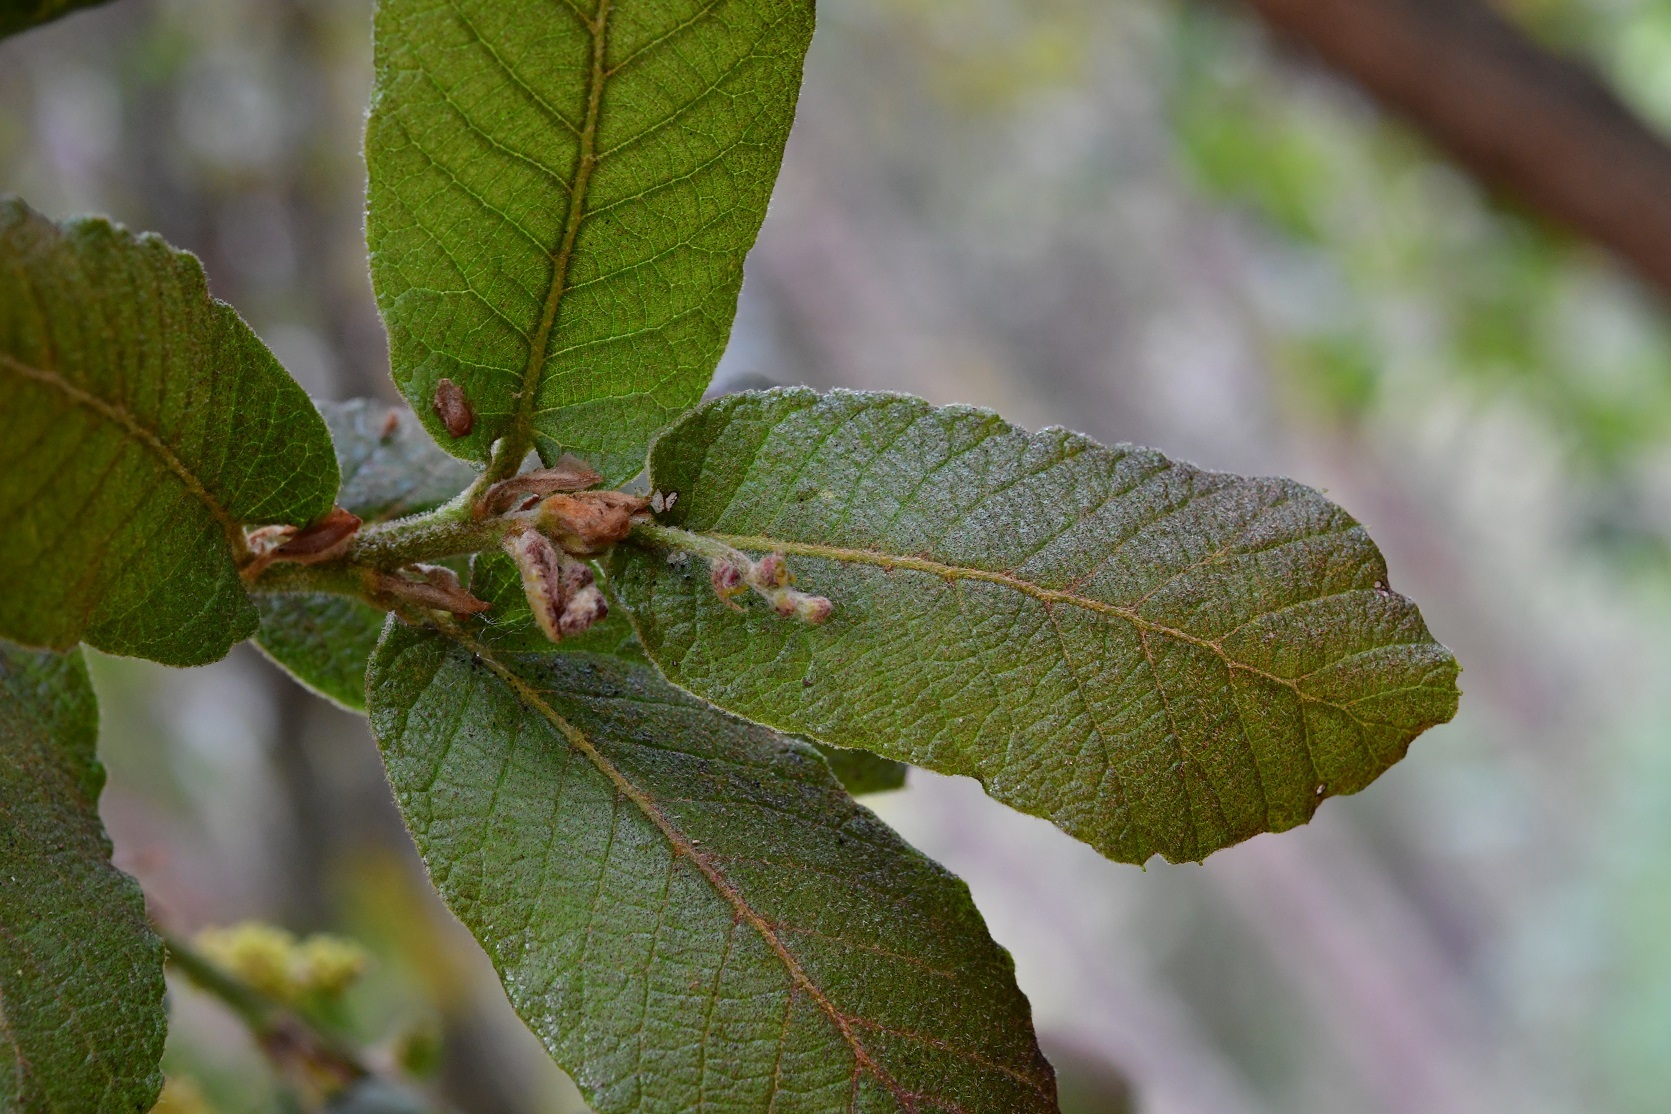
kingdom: Plantae
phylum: Tracheophyta
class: Magnoliopsida
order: Fagales
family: Fagaceae
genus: Quercus
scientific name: Quercus rugosa
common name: Netleaf oak
